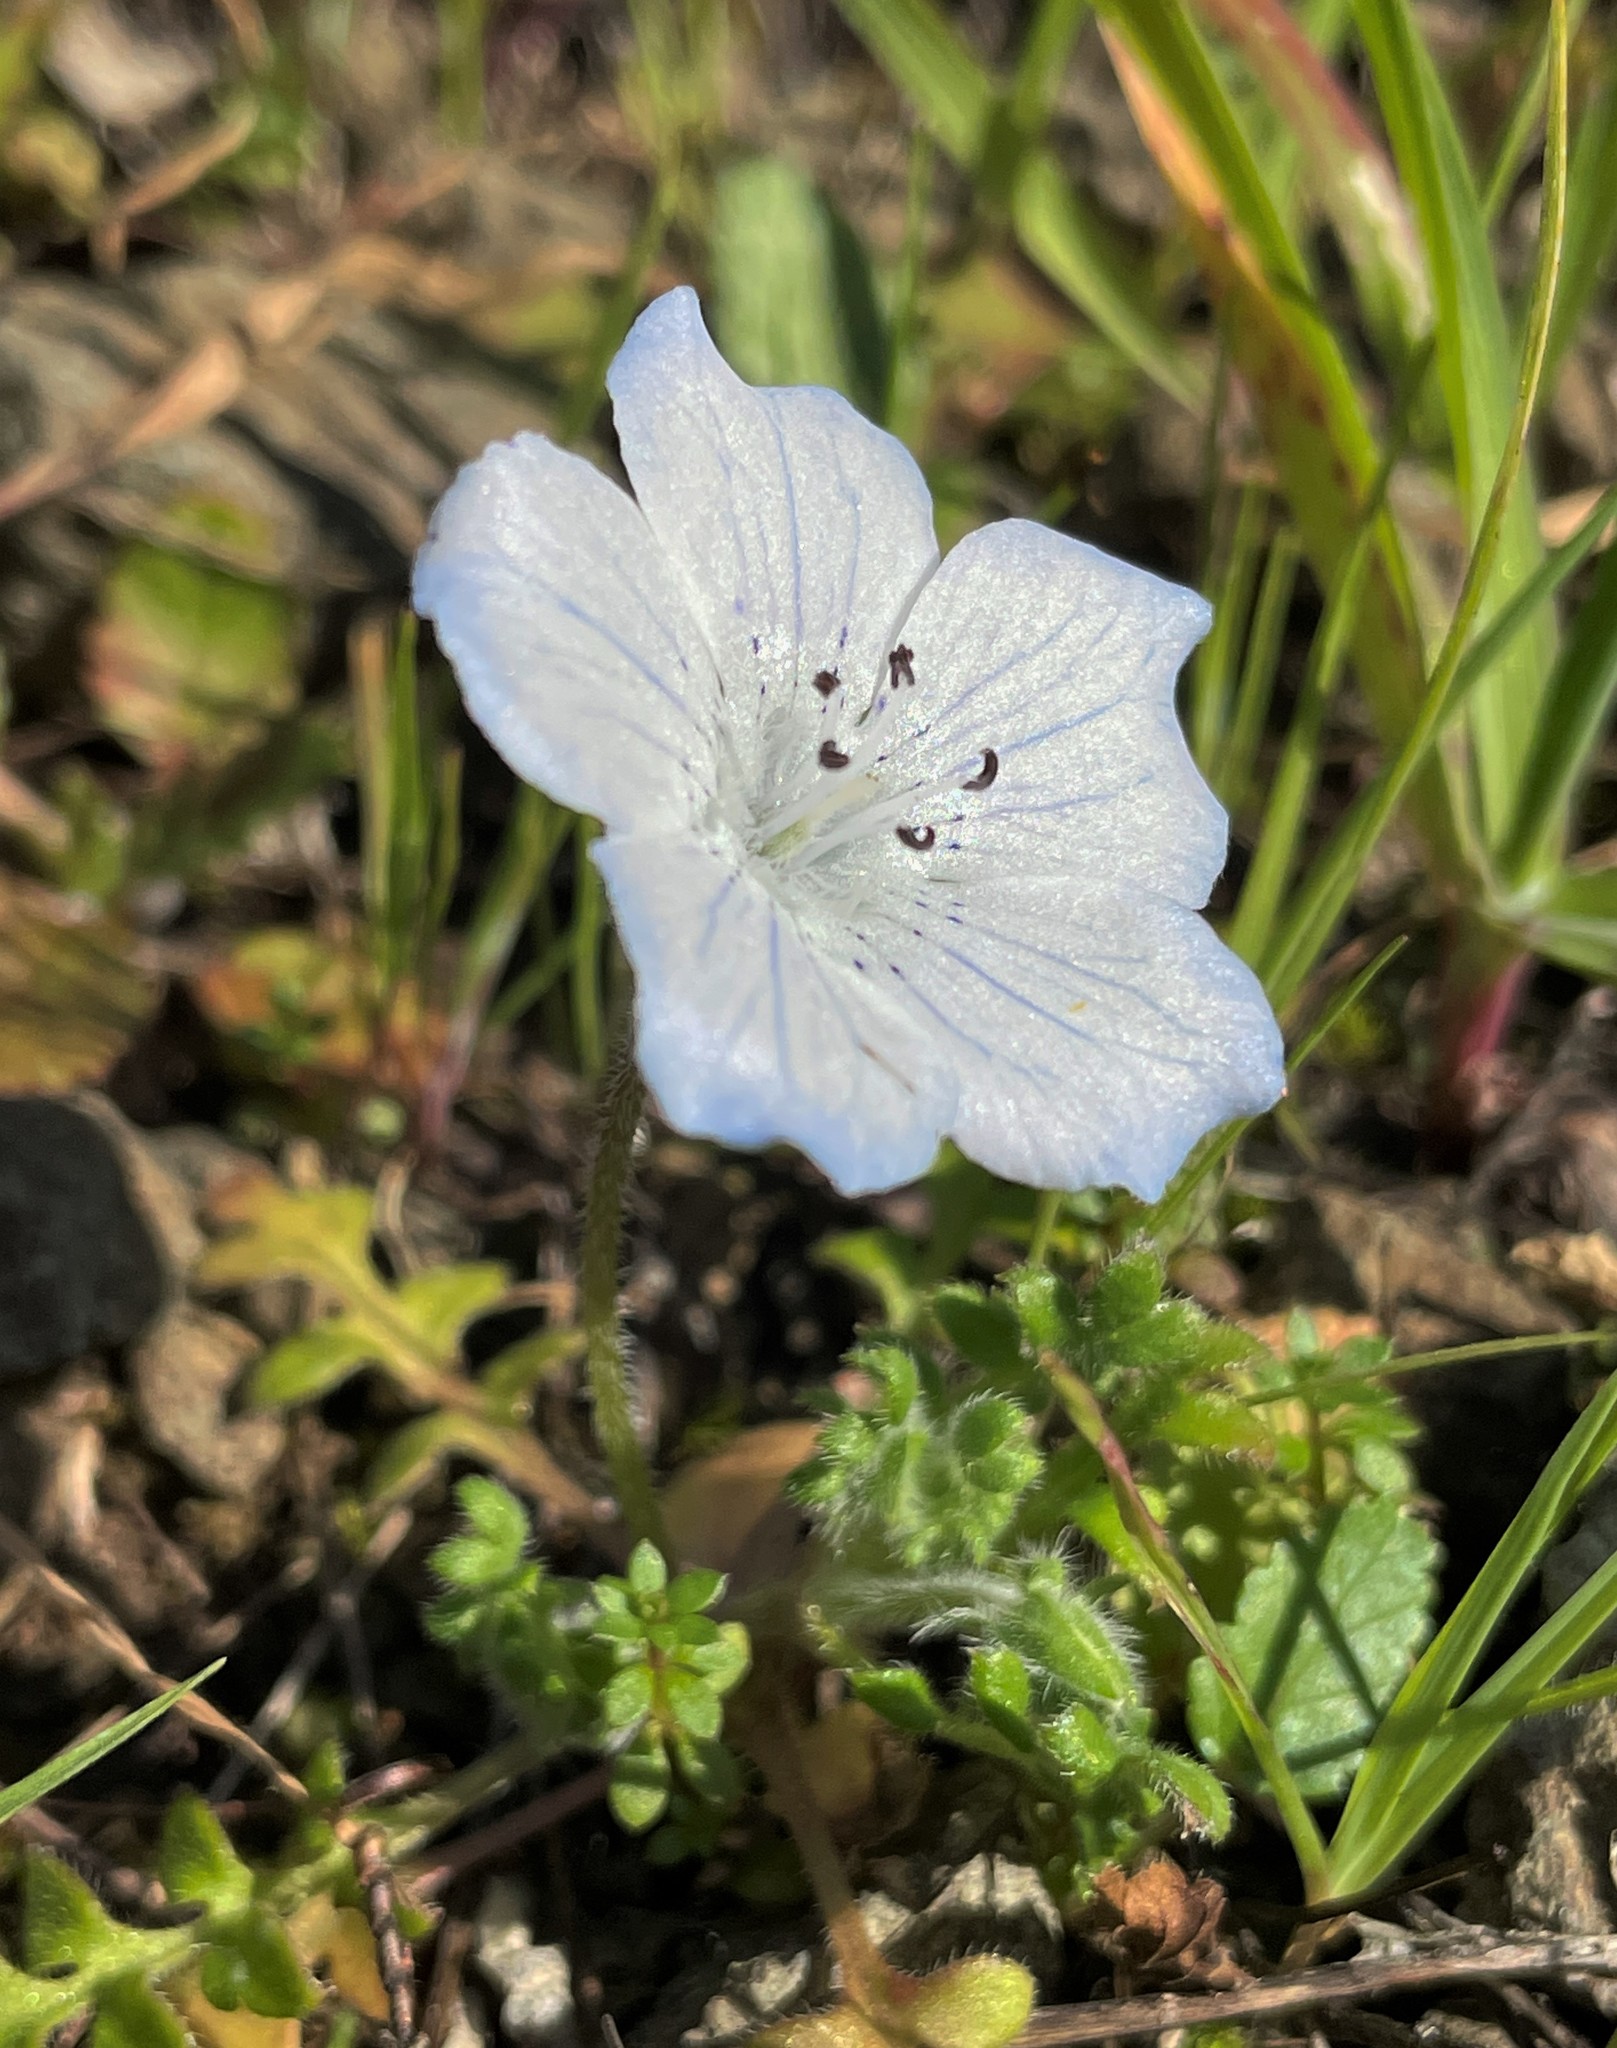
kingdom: Plantae
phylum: Tracheophyta
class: Magnoliopsida
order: Boraginales
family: Hydrophyllaceae
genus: Nemophila
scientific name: Nemophila menziesii
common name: Baby's-blue-eyes
